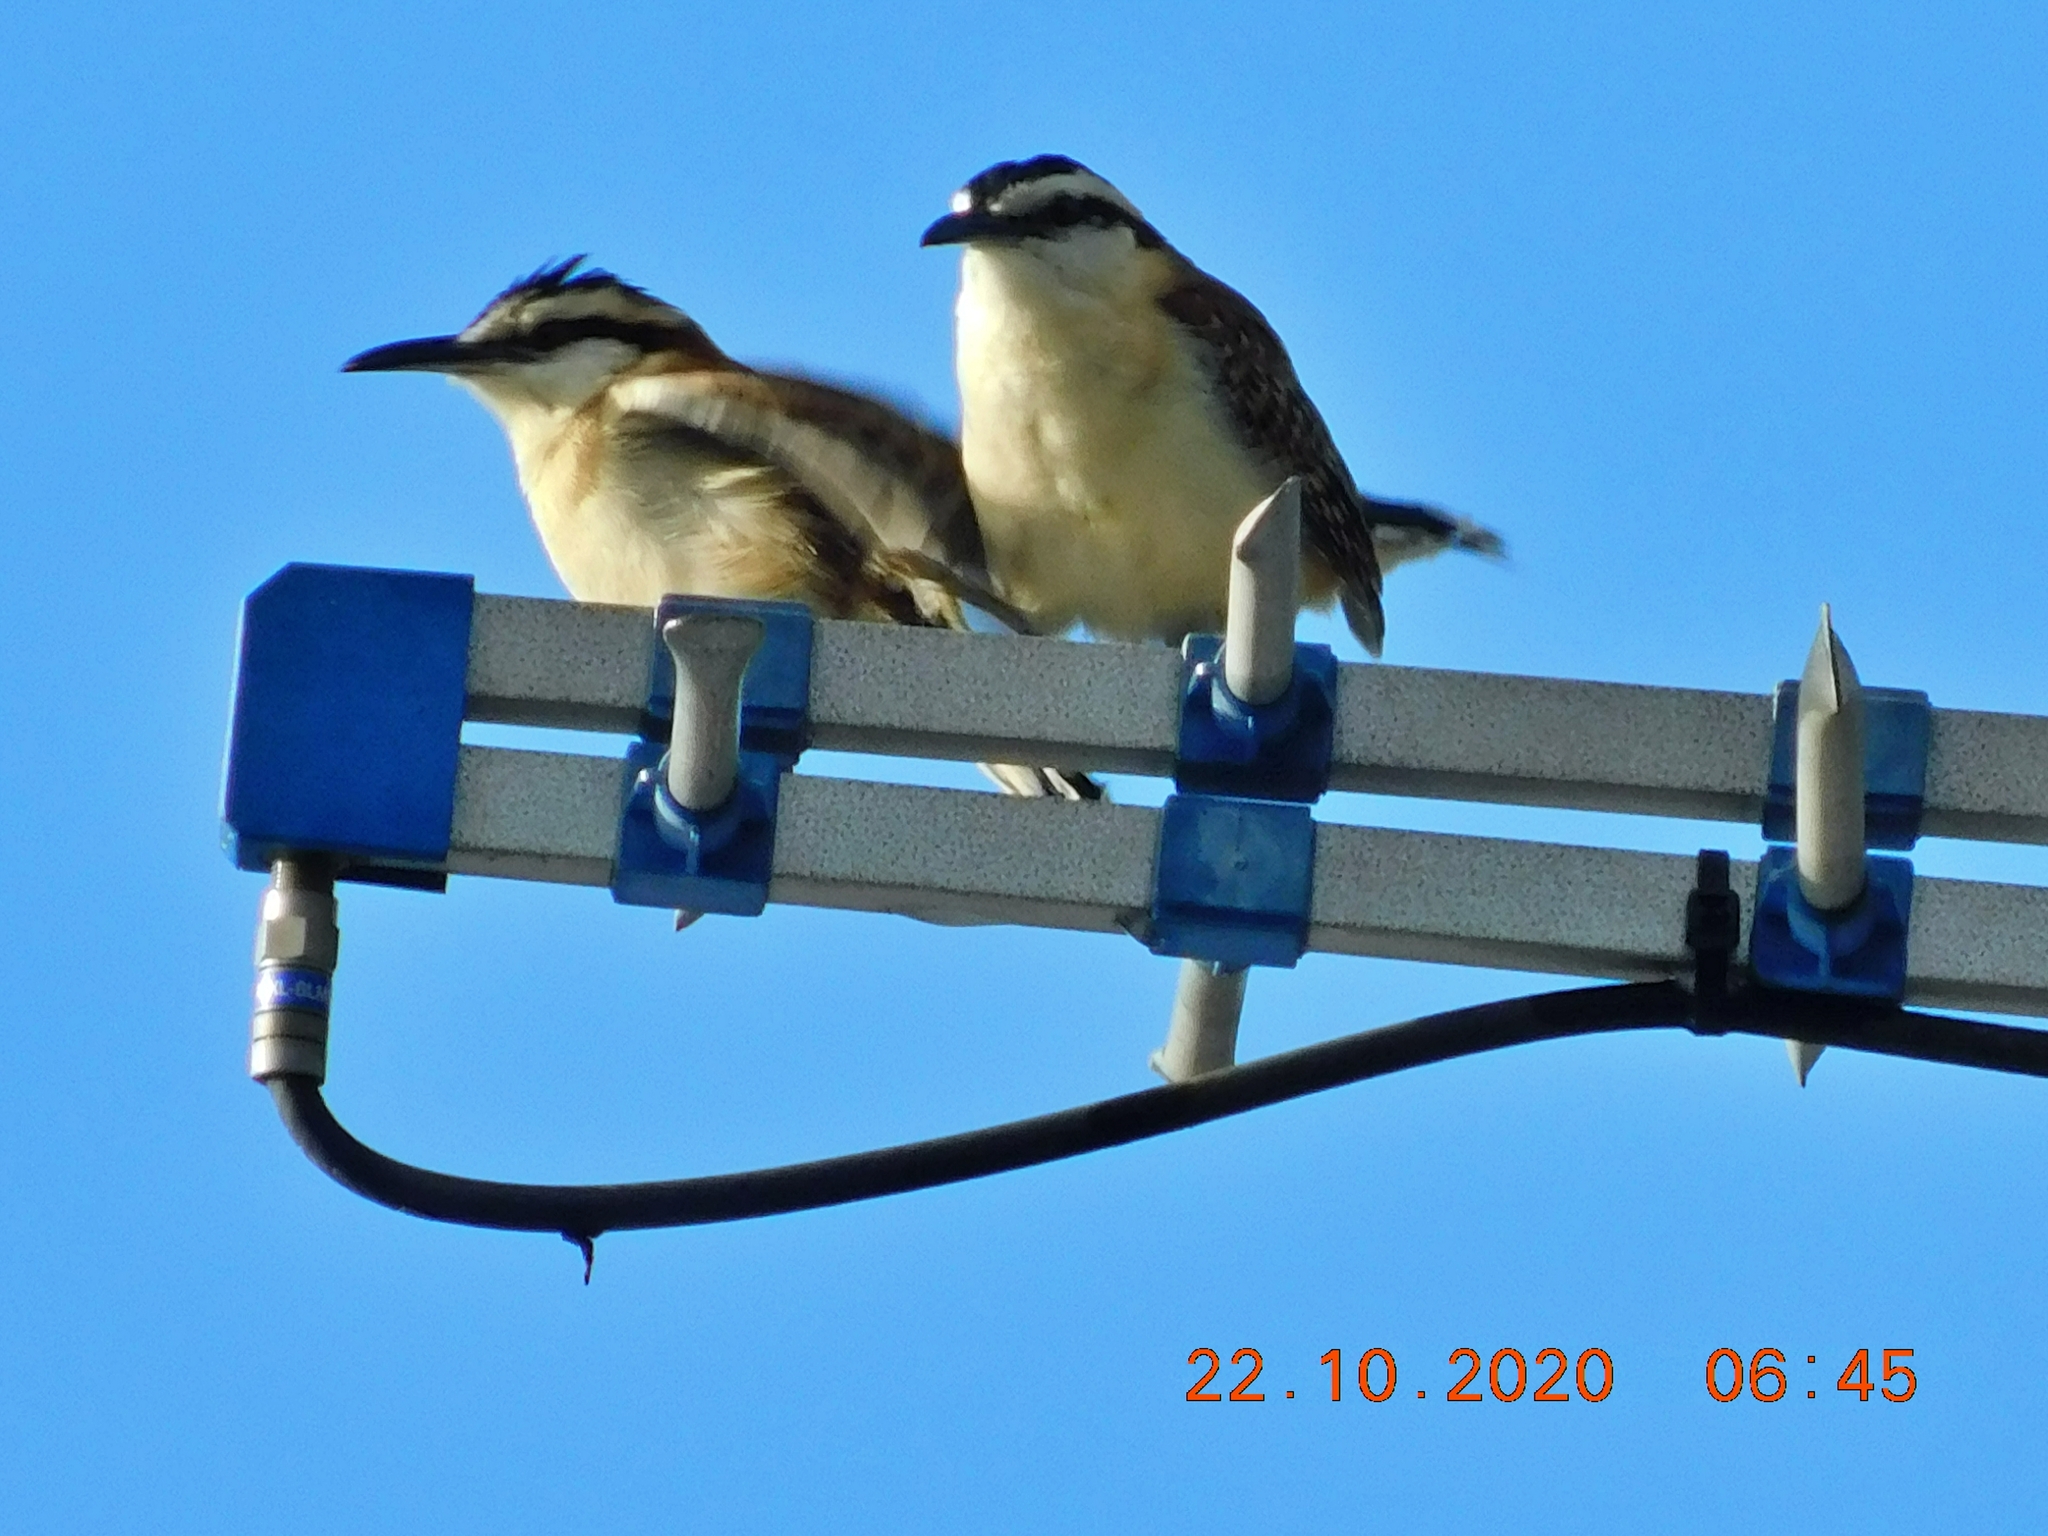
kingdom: Animalia
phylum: Chordata
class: Aves
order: Passeriformes
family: Troglodytidae
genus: Campylorhynchus
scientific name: Campylorhynchus rufinucha
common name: Rufous-naped wren
